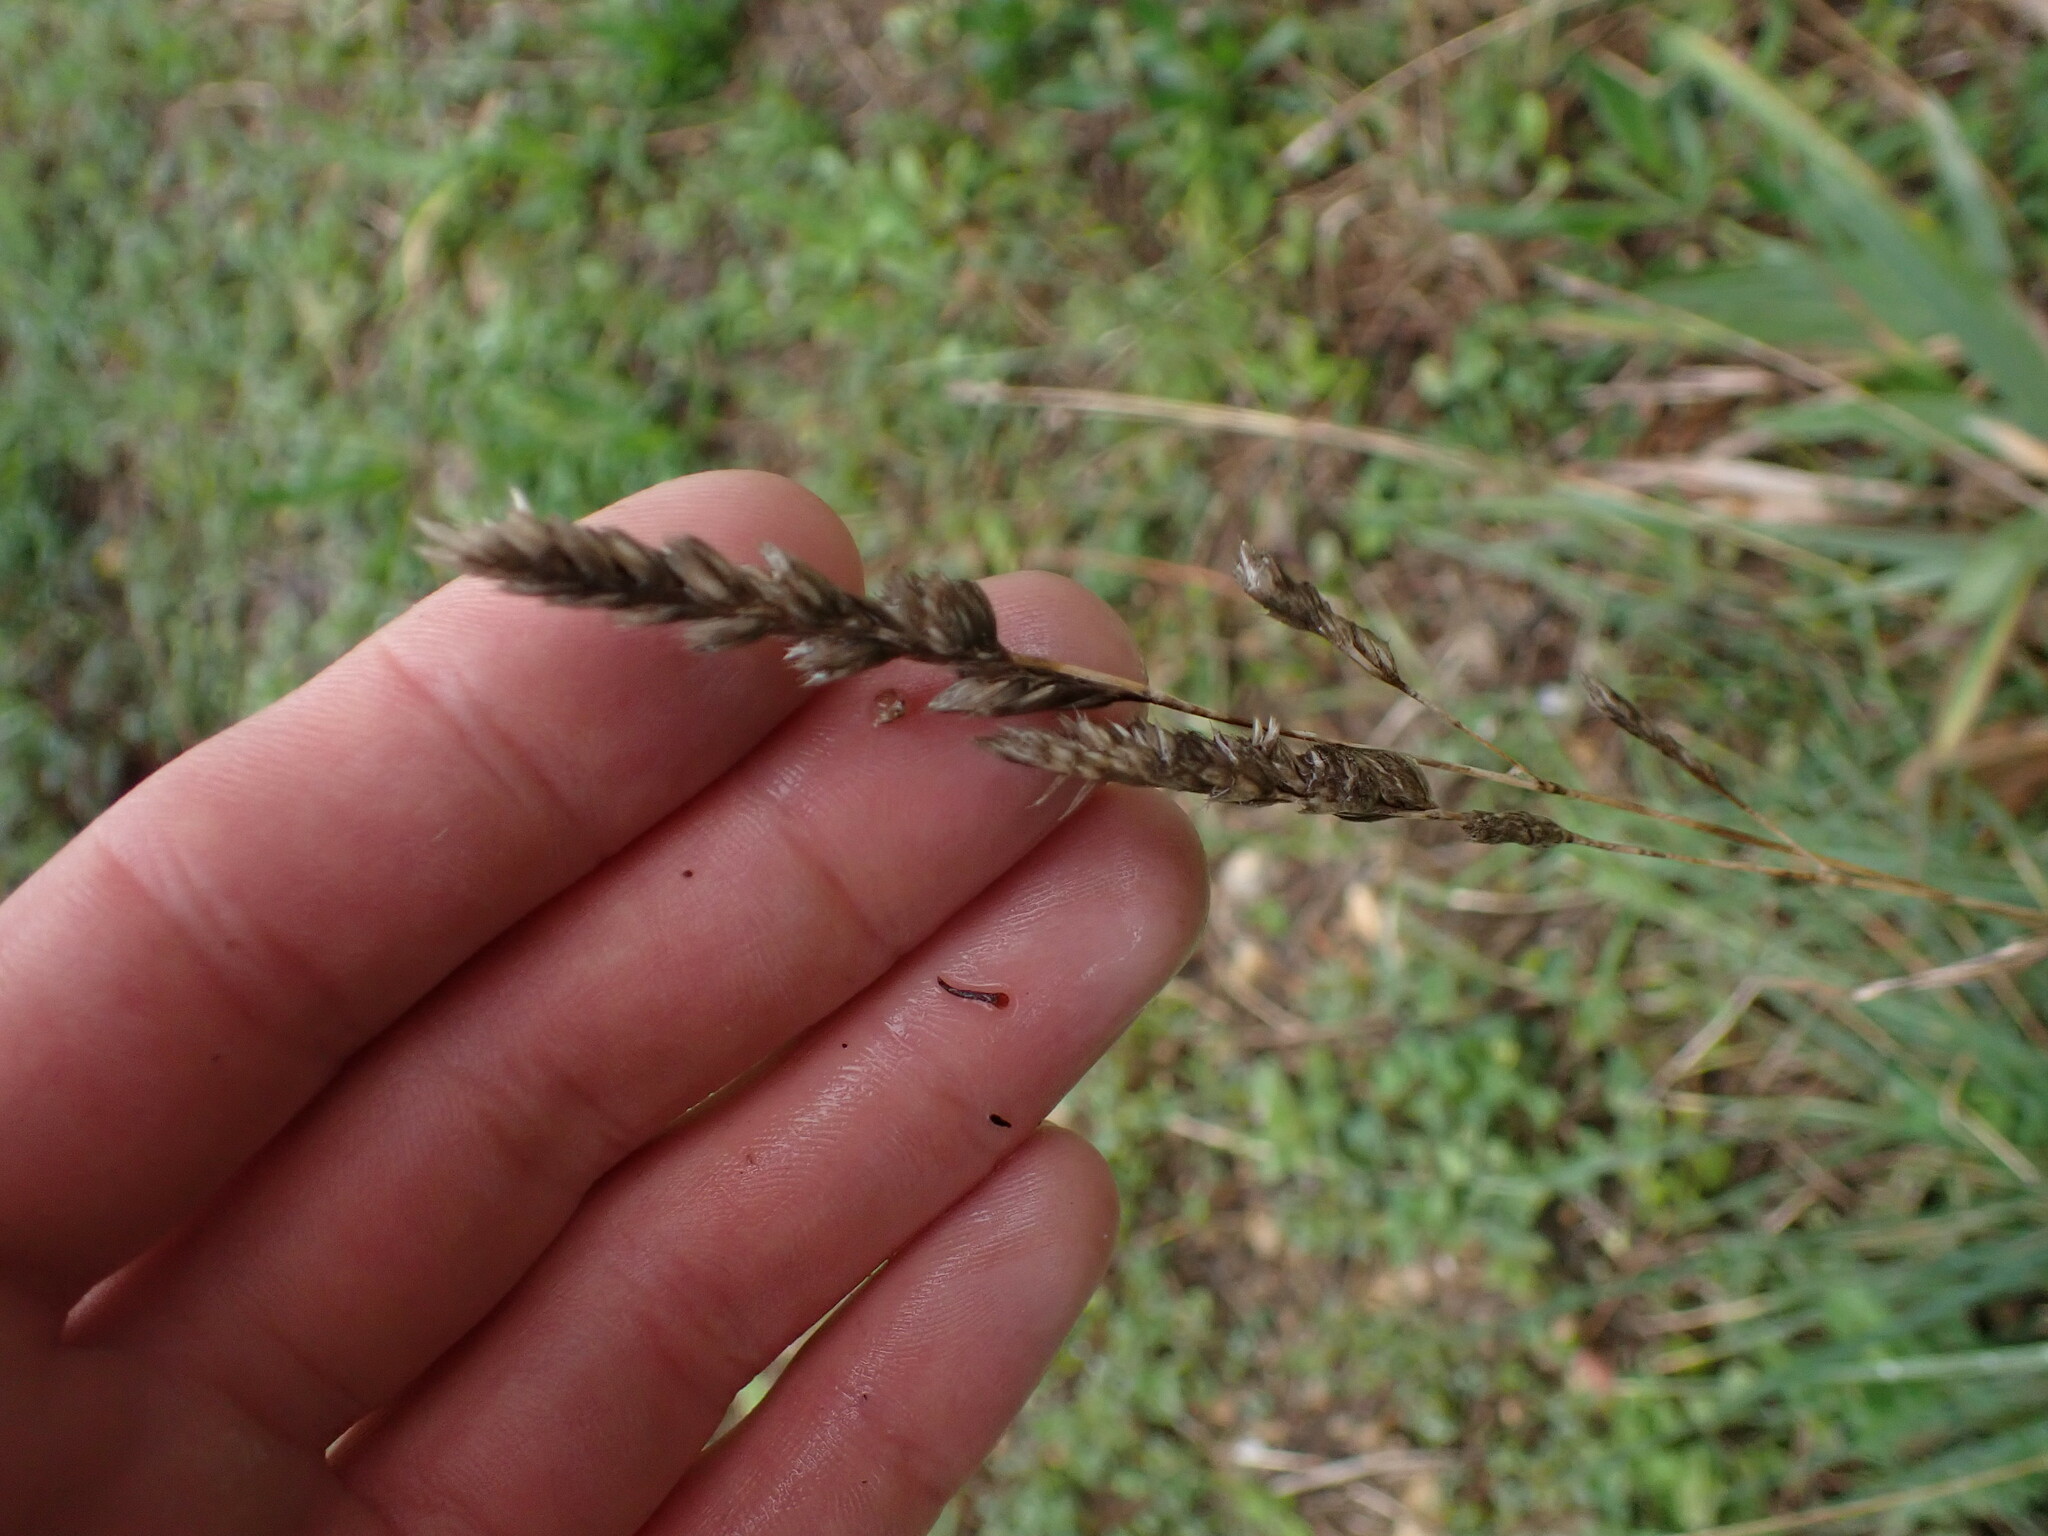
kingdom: Plantae
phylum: Tracheophyta
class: Liliopsida
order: Poales
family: Poaceae
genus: Dactylis
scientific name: Dactylis glomerata
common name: Orchardgrass
